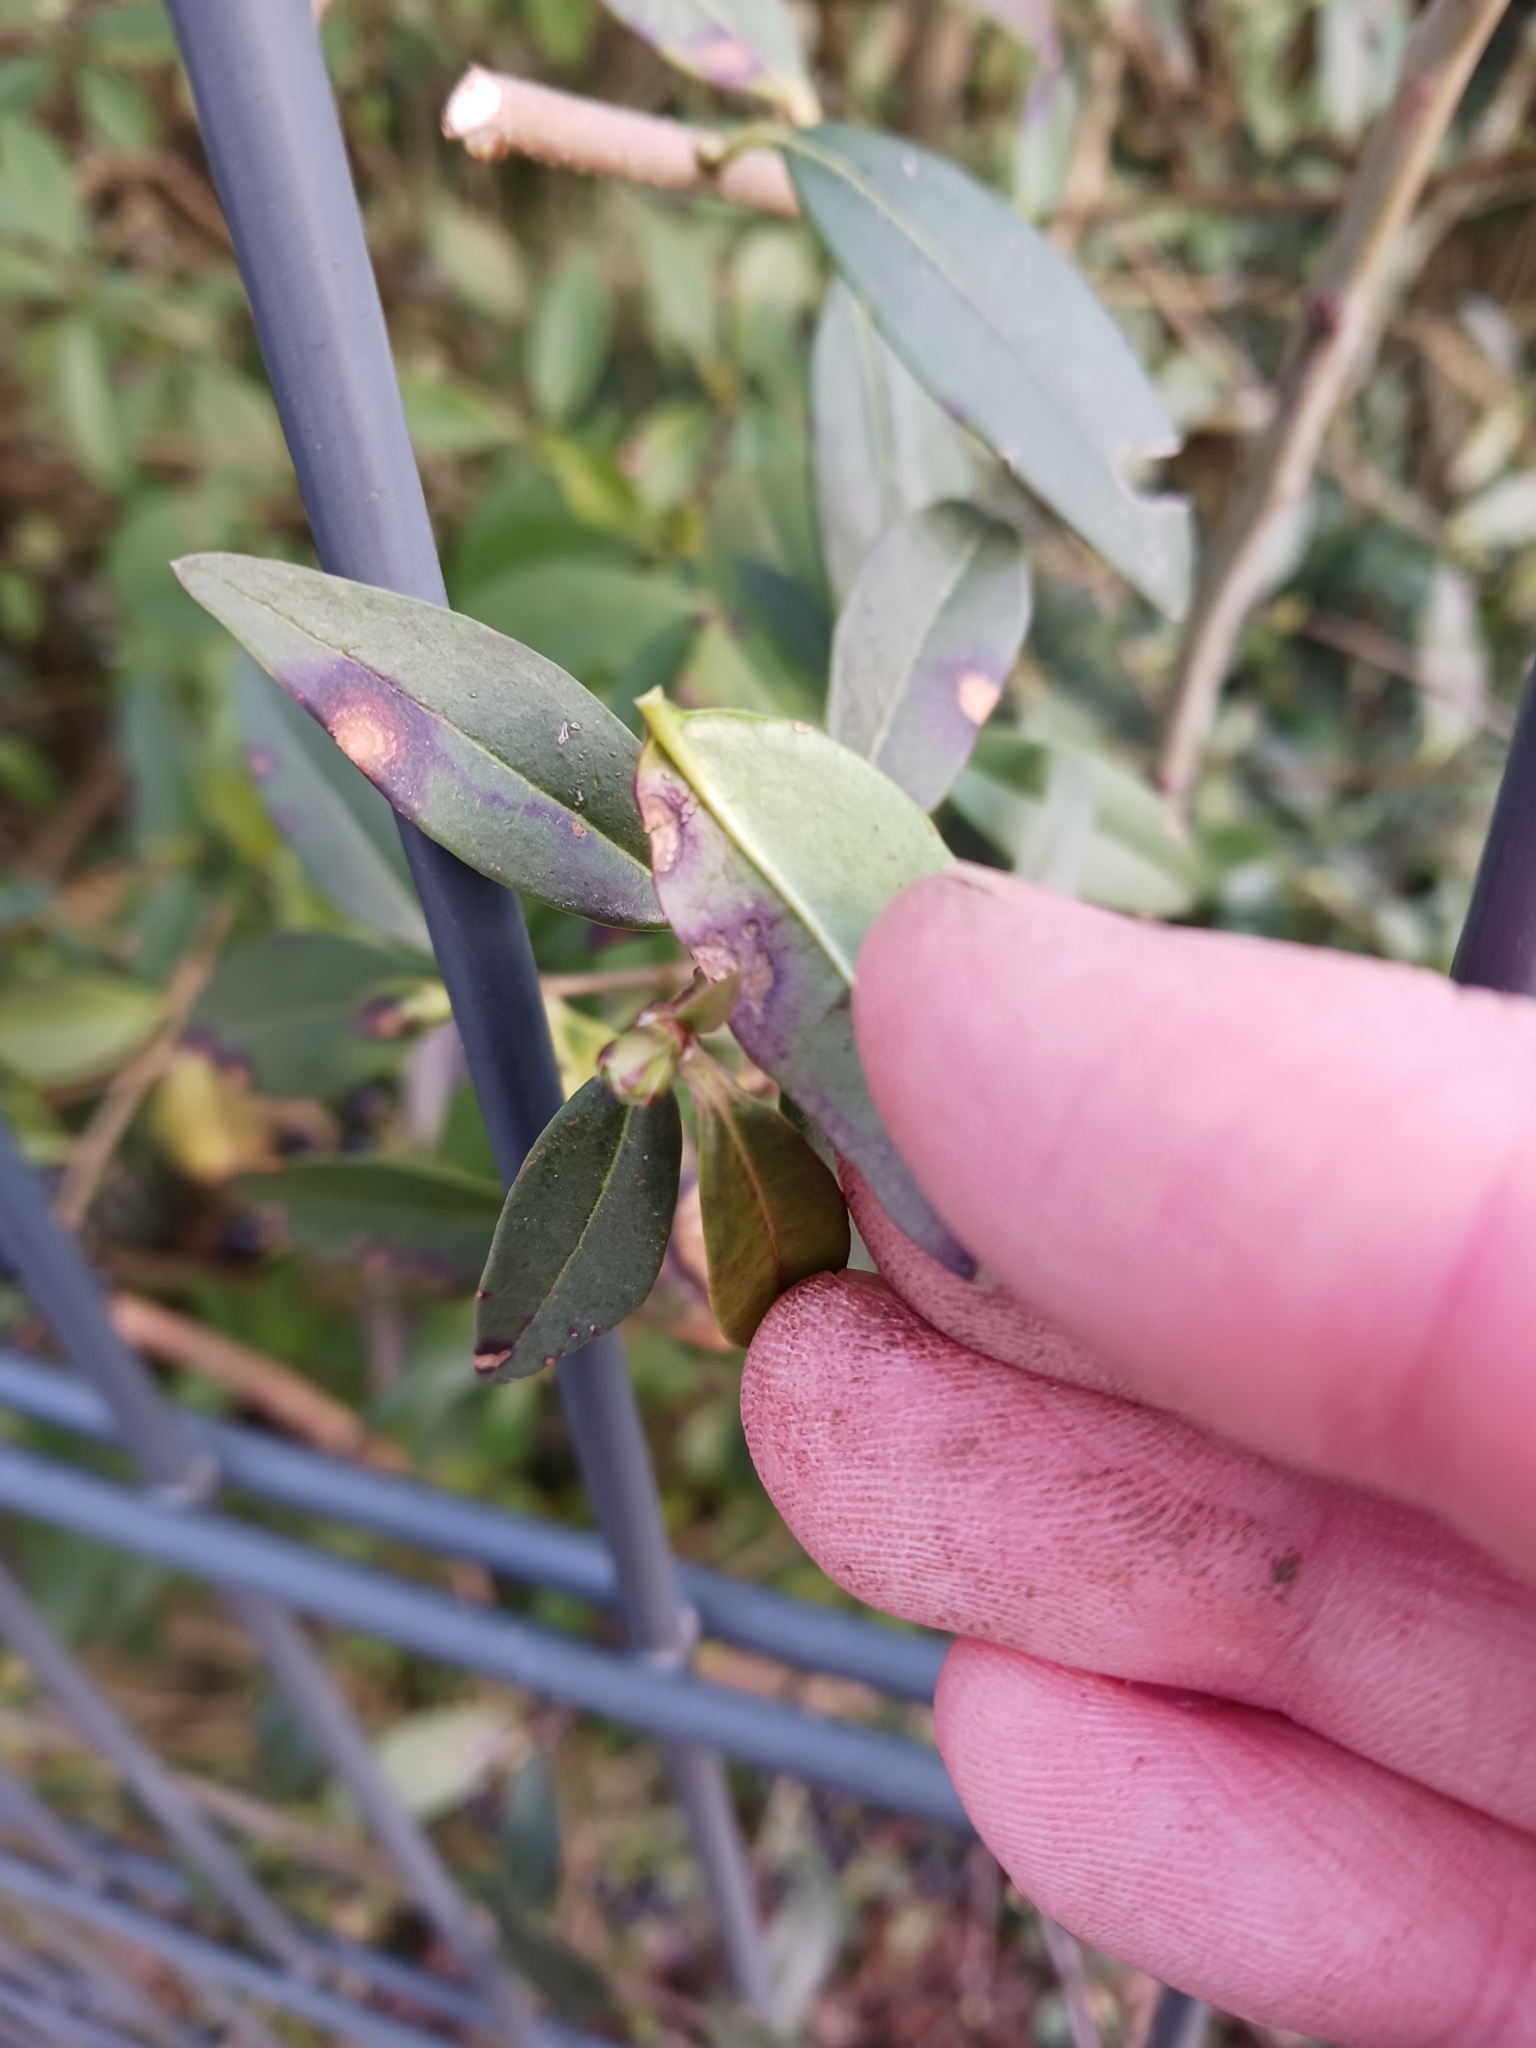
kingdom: Fungi
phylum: Ascomycota
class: Leotiomycetes
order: Helotiales
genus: Thedgonia
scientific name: Thedgonia ligustrina
